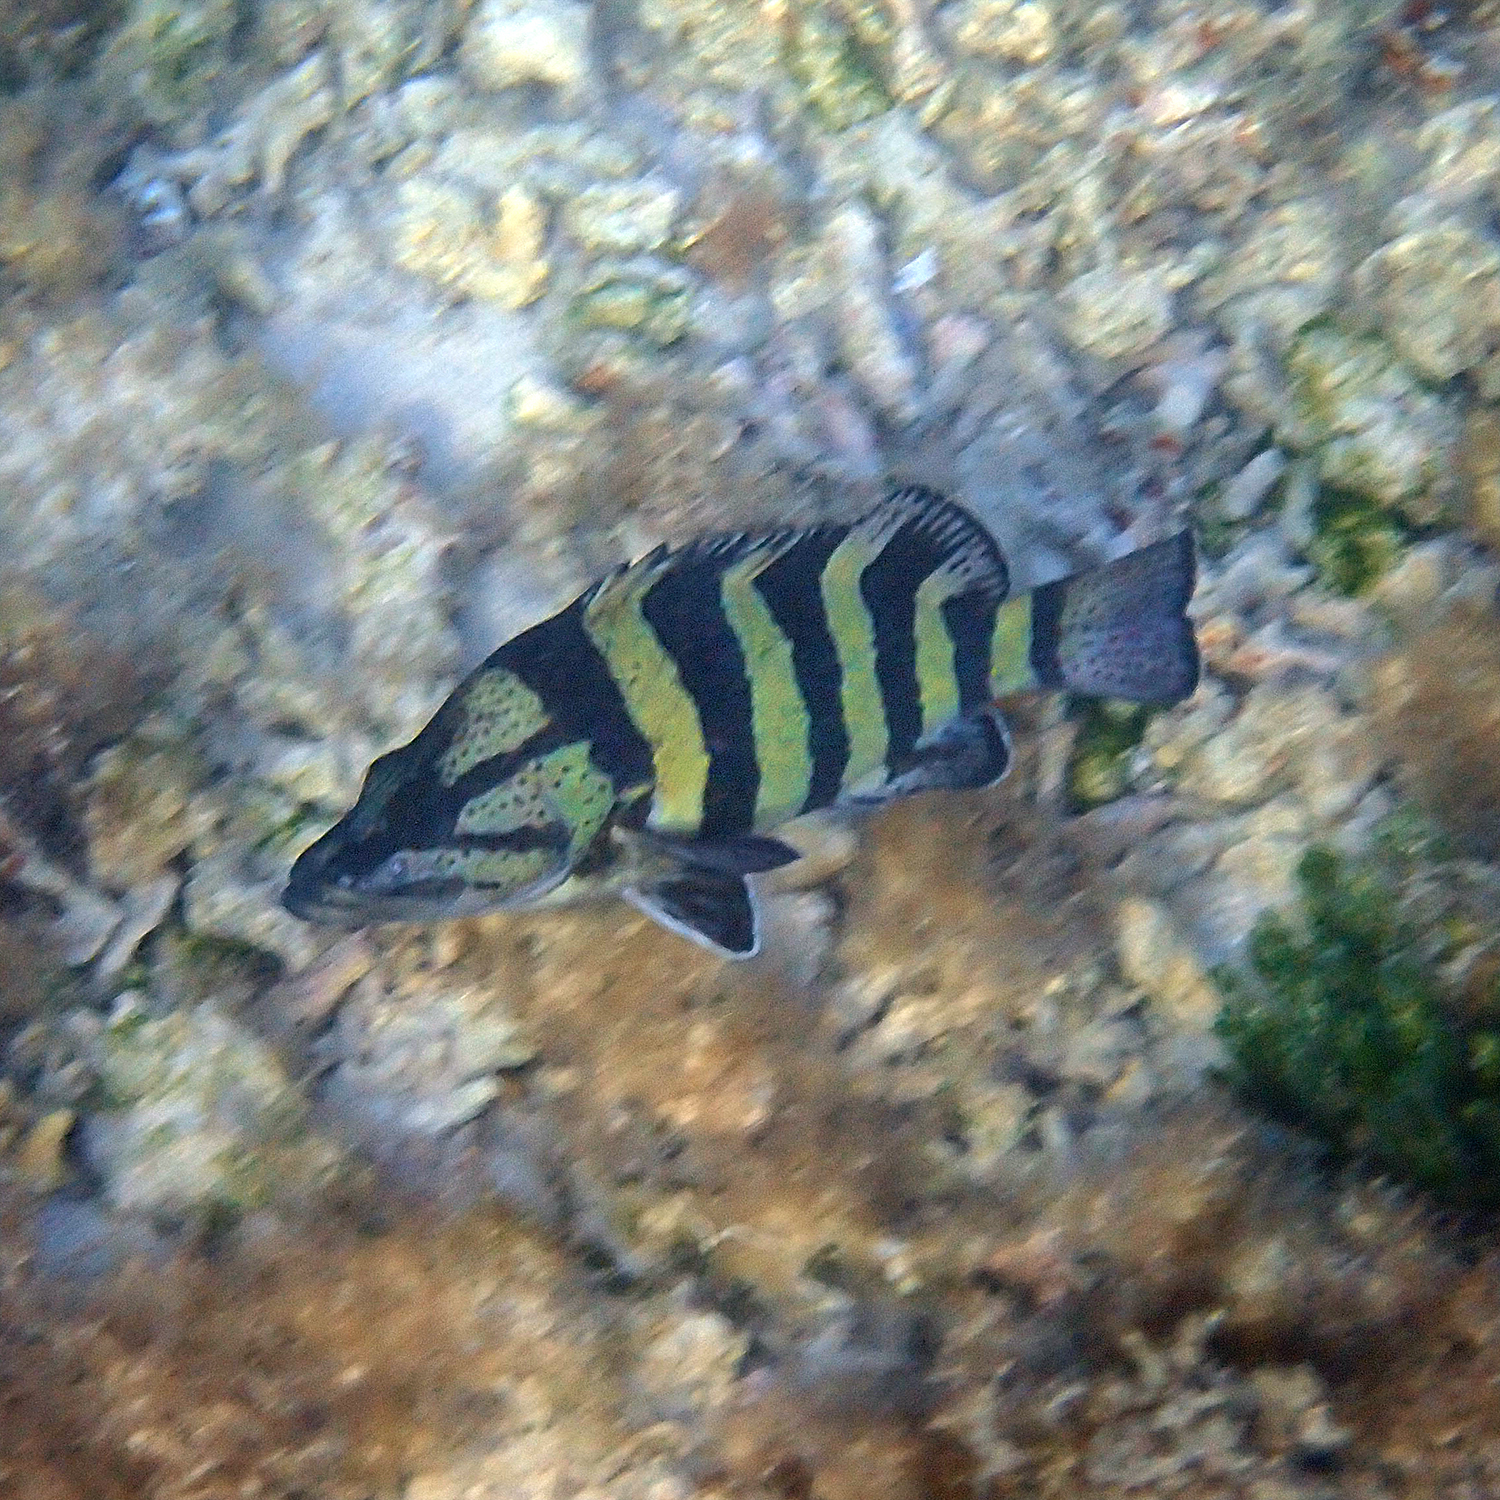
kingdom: Animalia
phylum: Chordata
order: Perciformes
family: Serranidae
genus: Acanthistius
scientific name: Acanthistius cinctus
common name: Girdled rock cod
